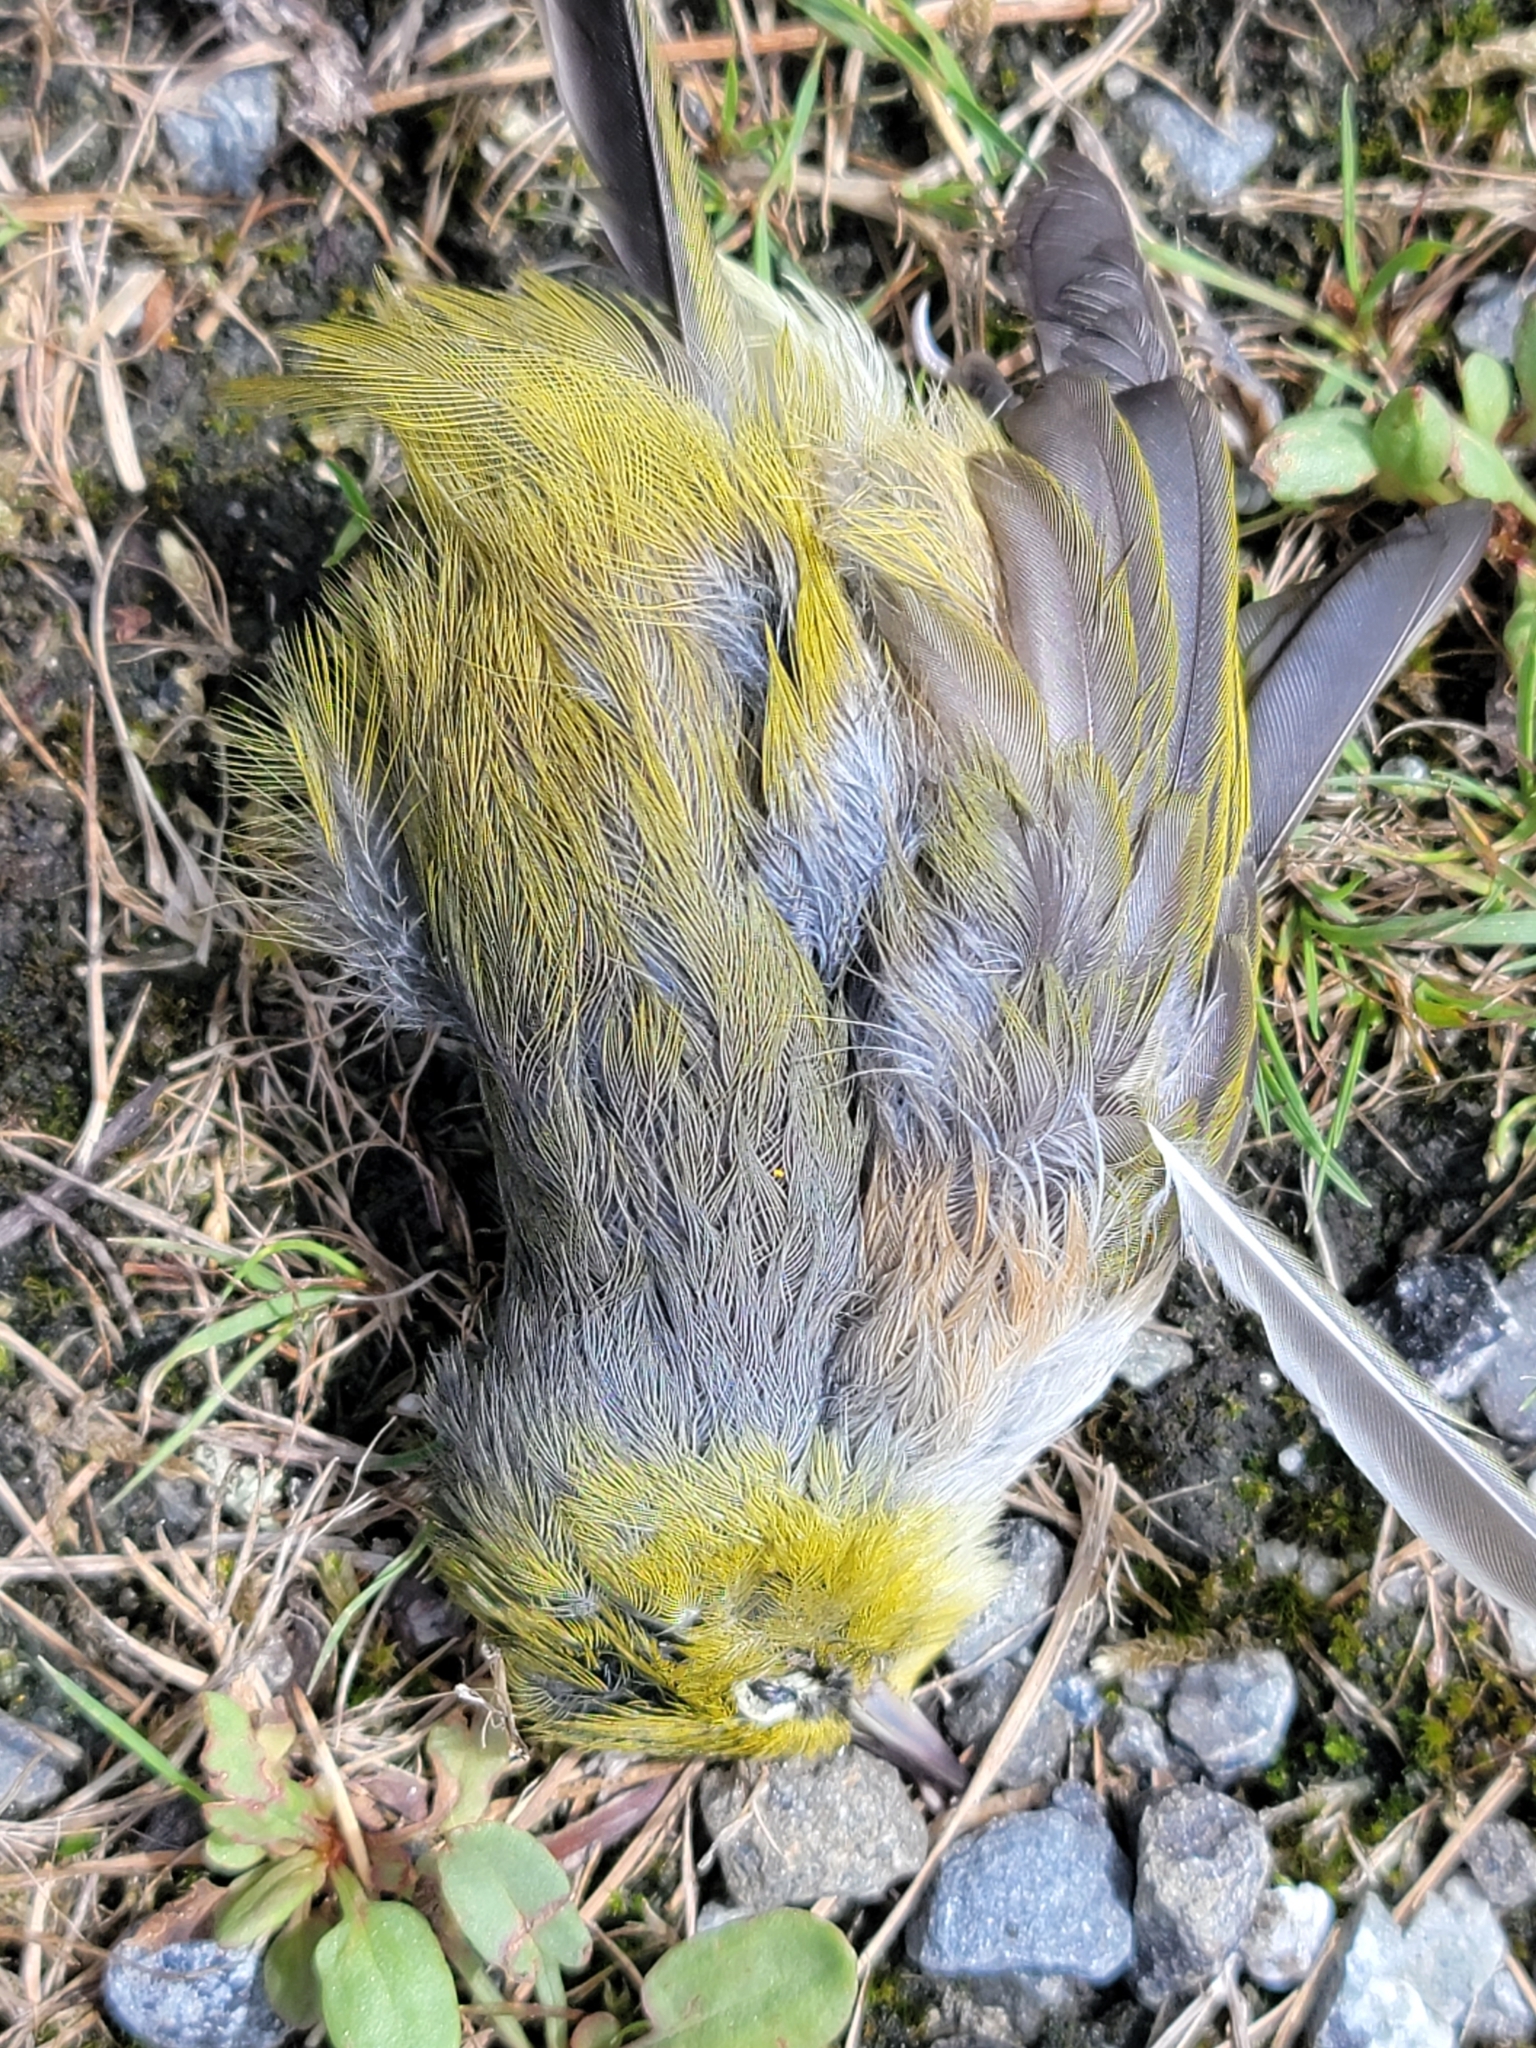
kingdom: Animalia
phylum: Chordata
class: Aves
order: Passeriformes
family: Zosteropidae
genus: Zosterops
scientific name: Zosterops lateralis
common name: Silvereye
